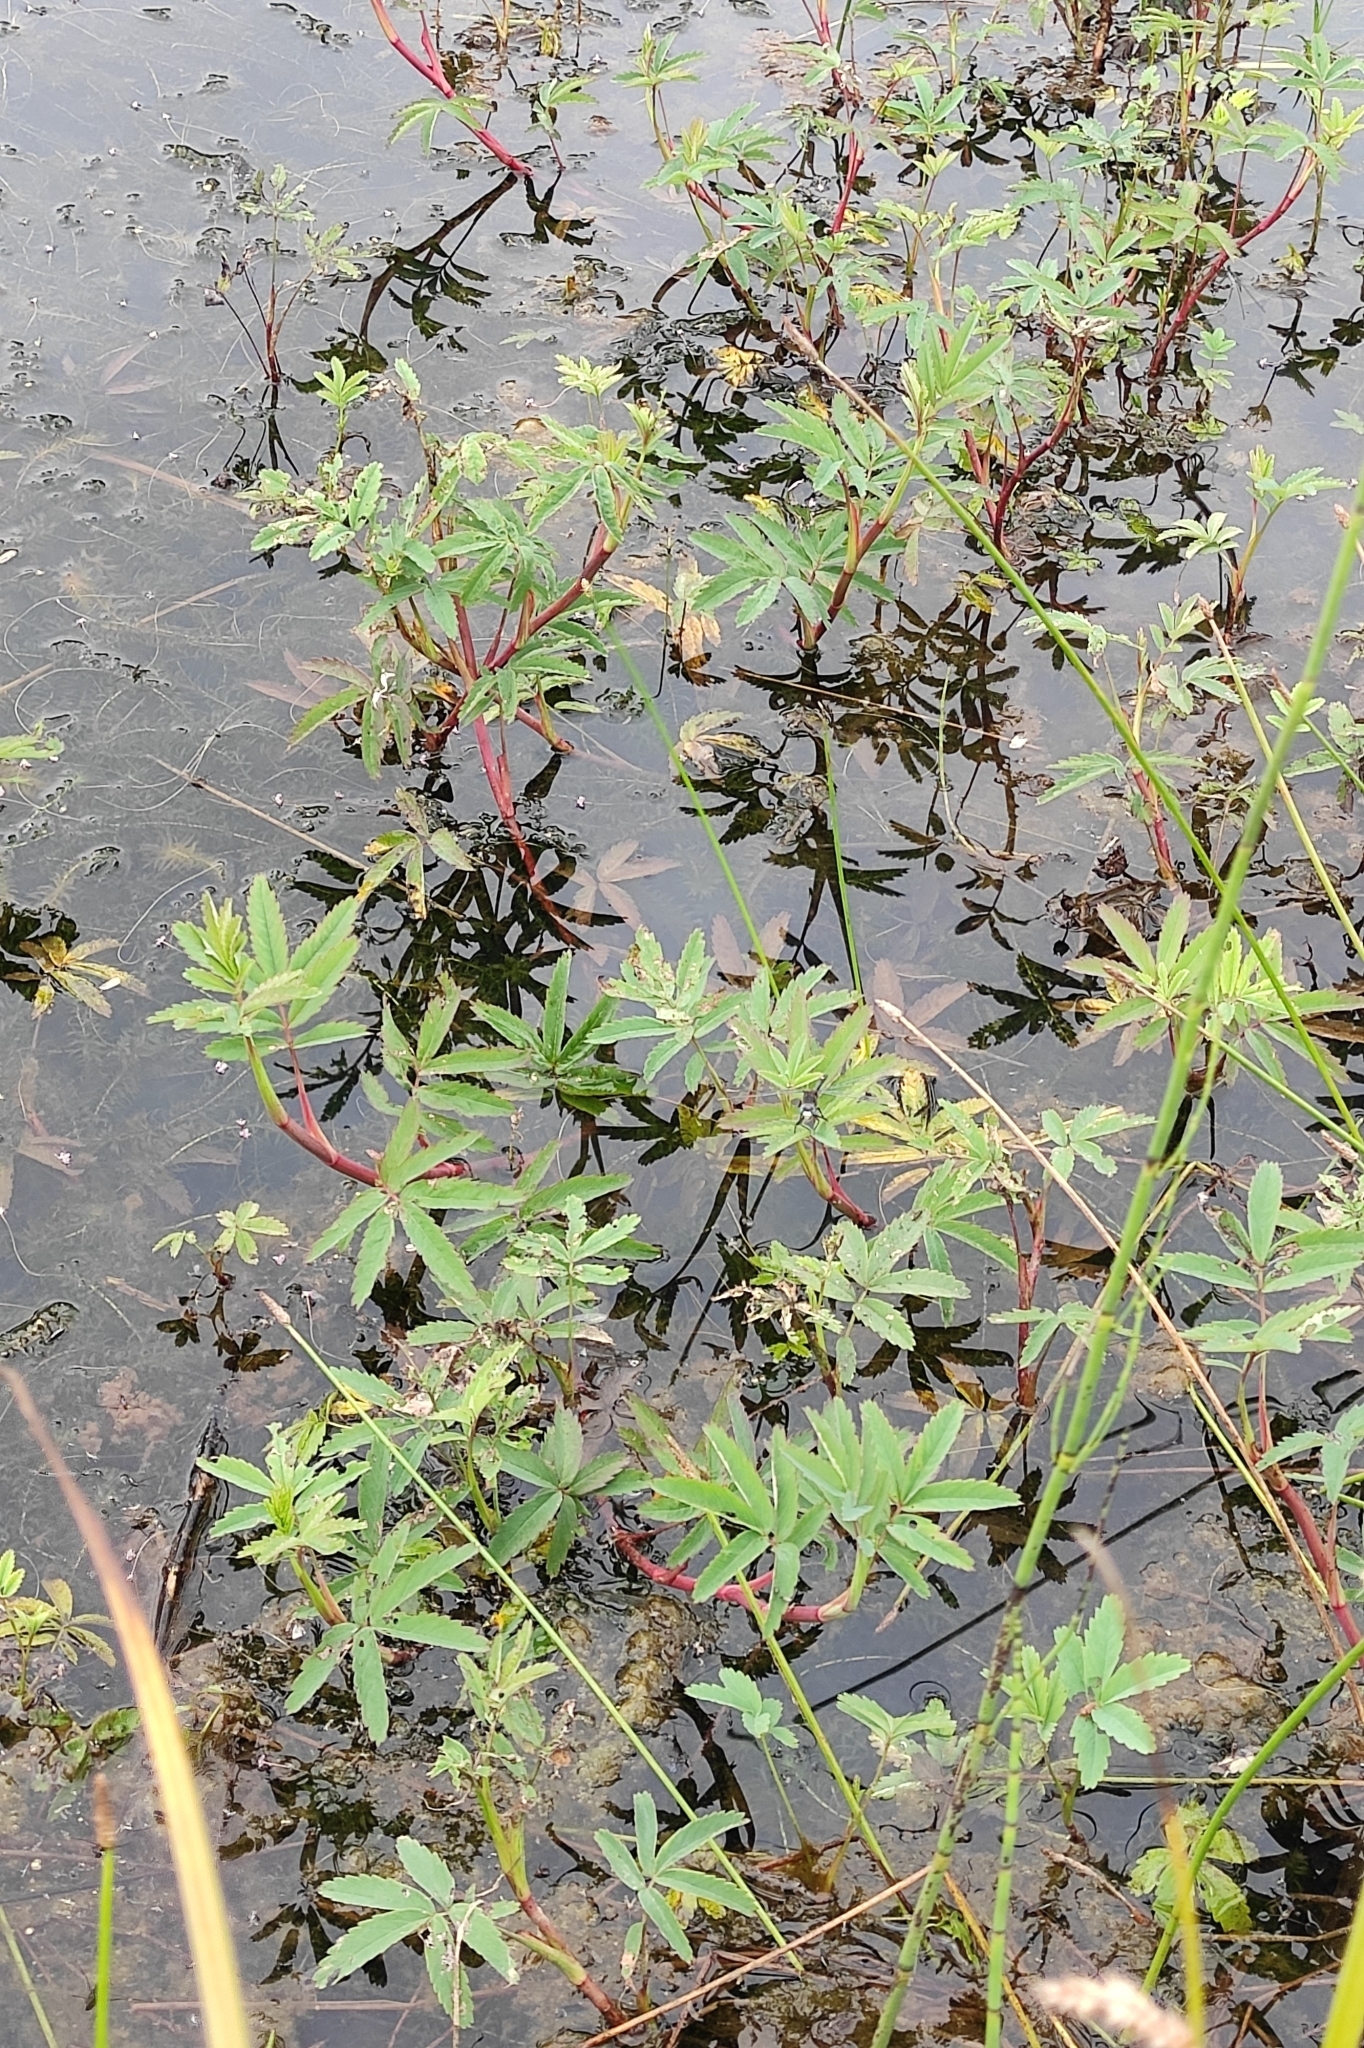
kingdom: Plantae
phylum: Tracheophyta
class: Magnoliopsida
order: Rosales
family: Rosaceae
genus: Comarum
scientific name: Comarum palustre
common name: Marsh cinquefoil
